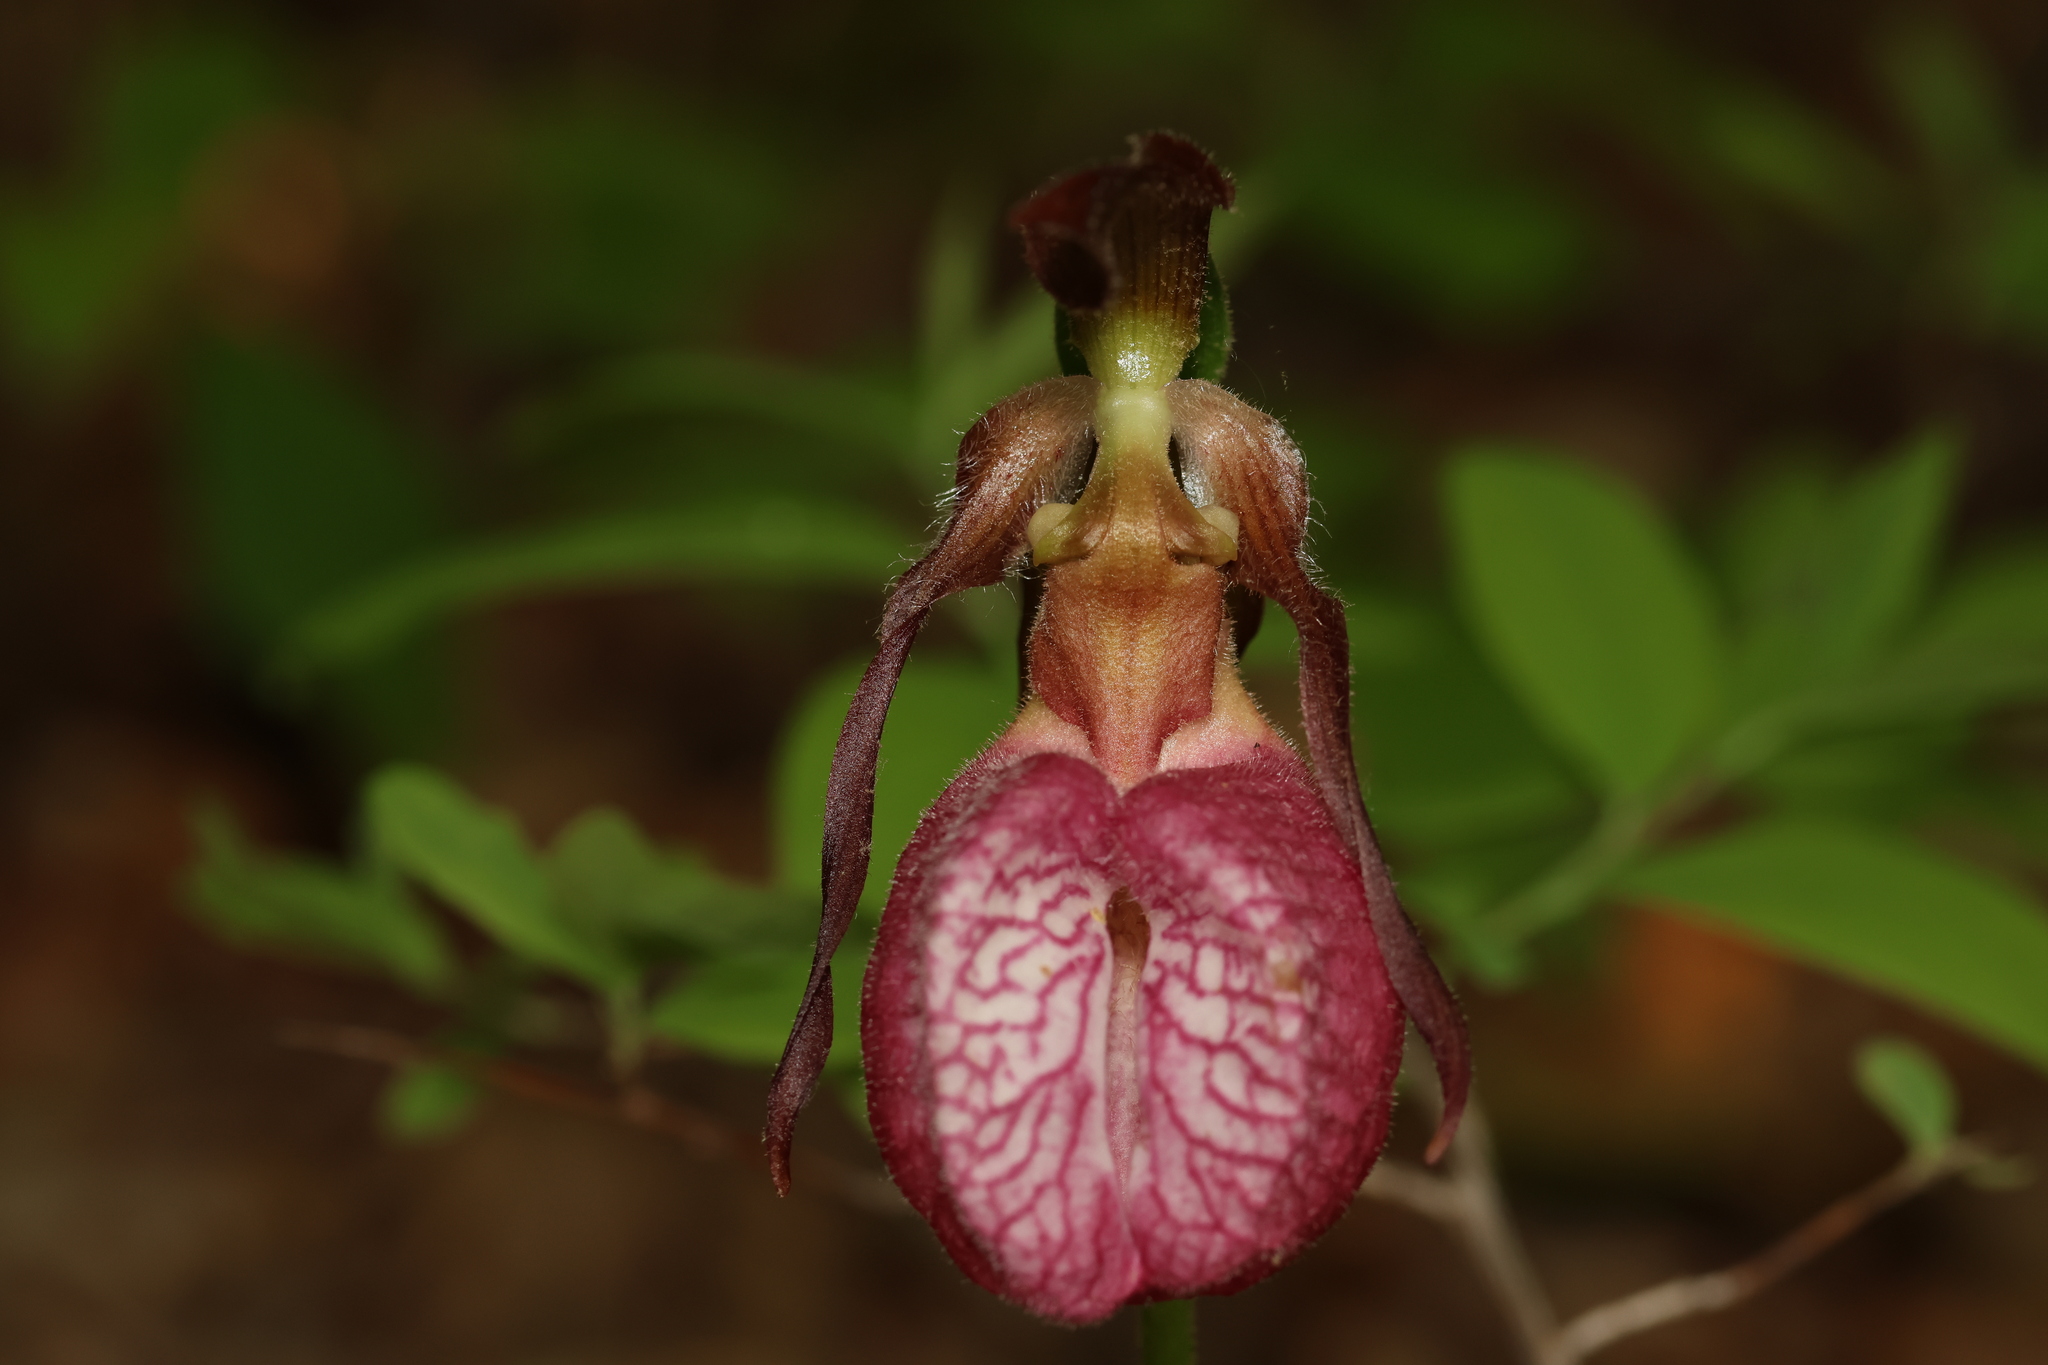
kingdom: Plantae
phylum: Tracheophyta
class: Liliopsida
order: Asparagales
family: Orchidaceae
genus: Cypripedium
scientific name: Cypripedium acaule
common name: Pink lady's-slipper
